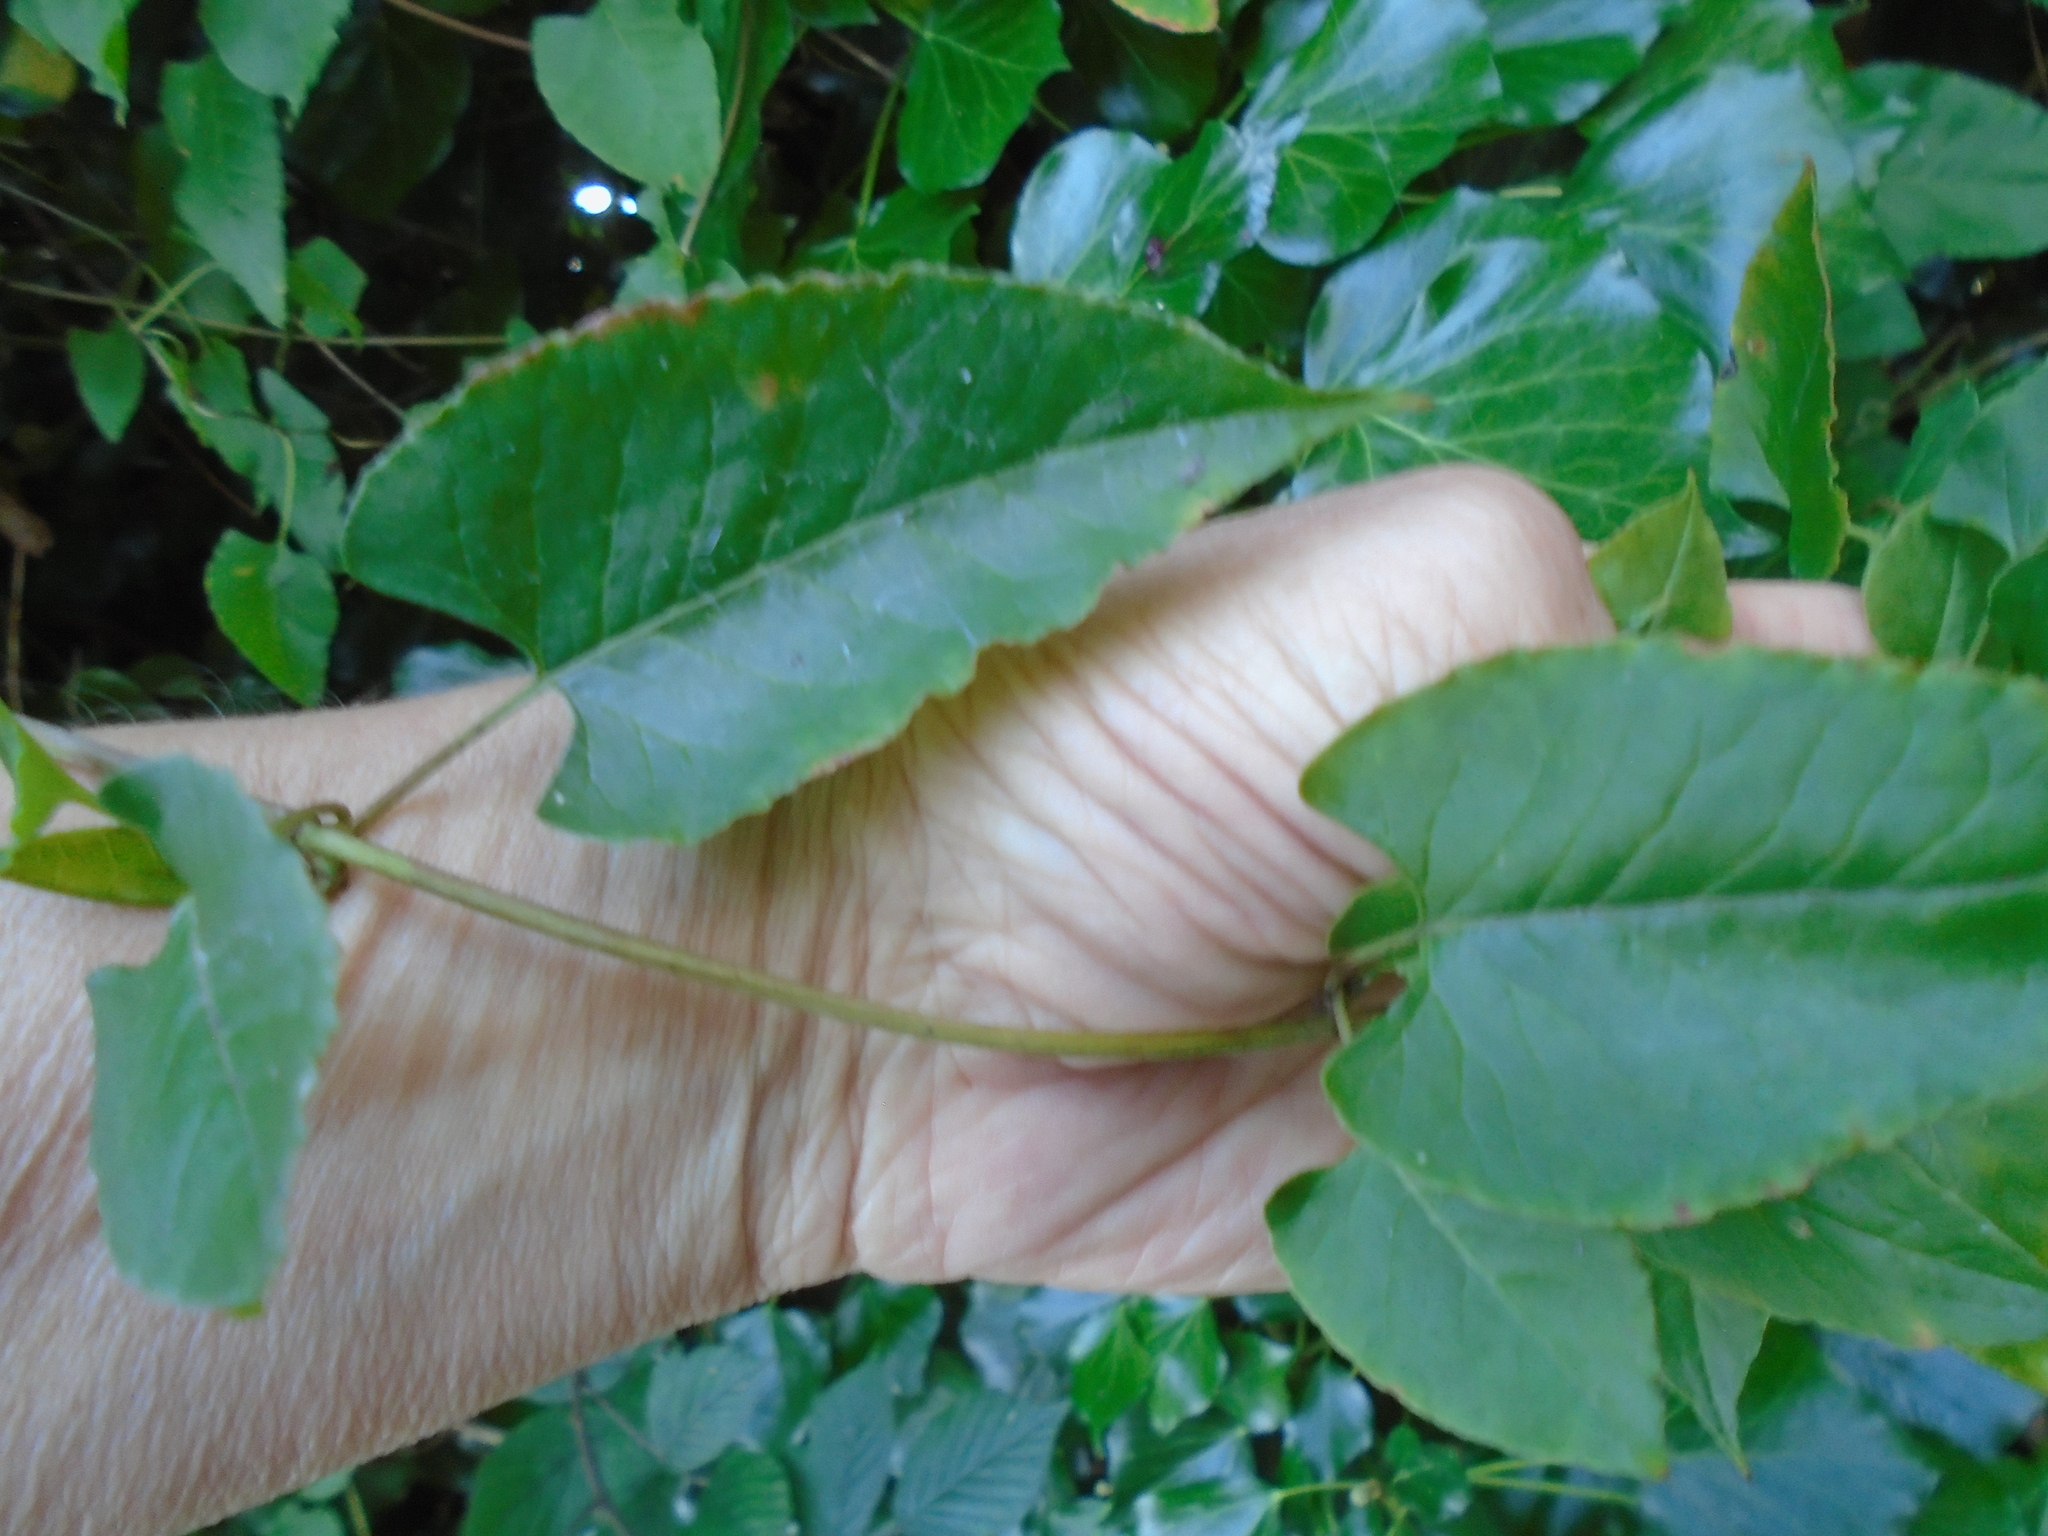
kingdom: Plantae
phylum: Tracheophyta
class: Magnoliopsida
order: Caryophyllales
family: Polygonaceae
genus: Fallopia
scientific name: Fallopia baldschuanica
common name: Russian-vine
